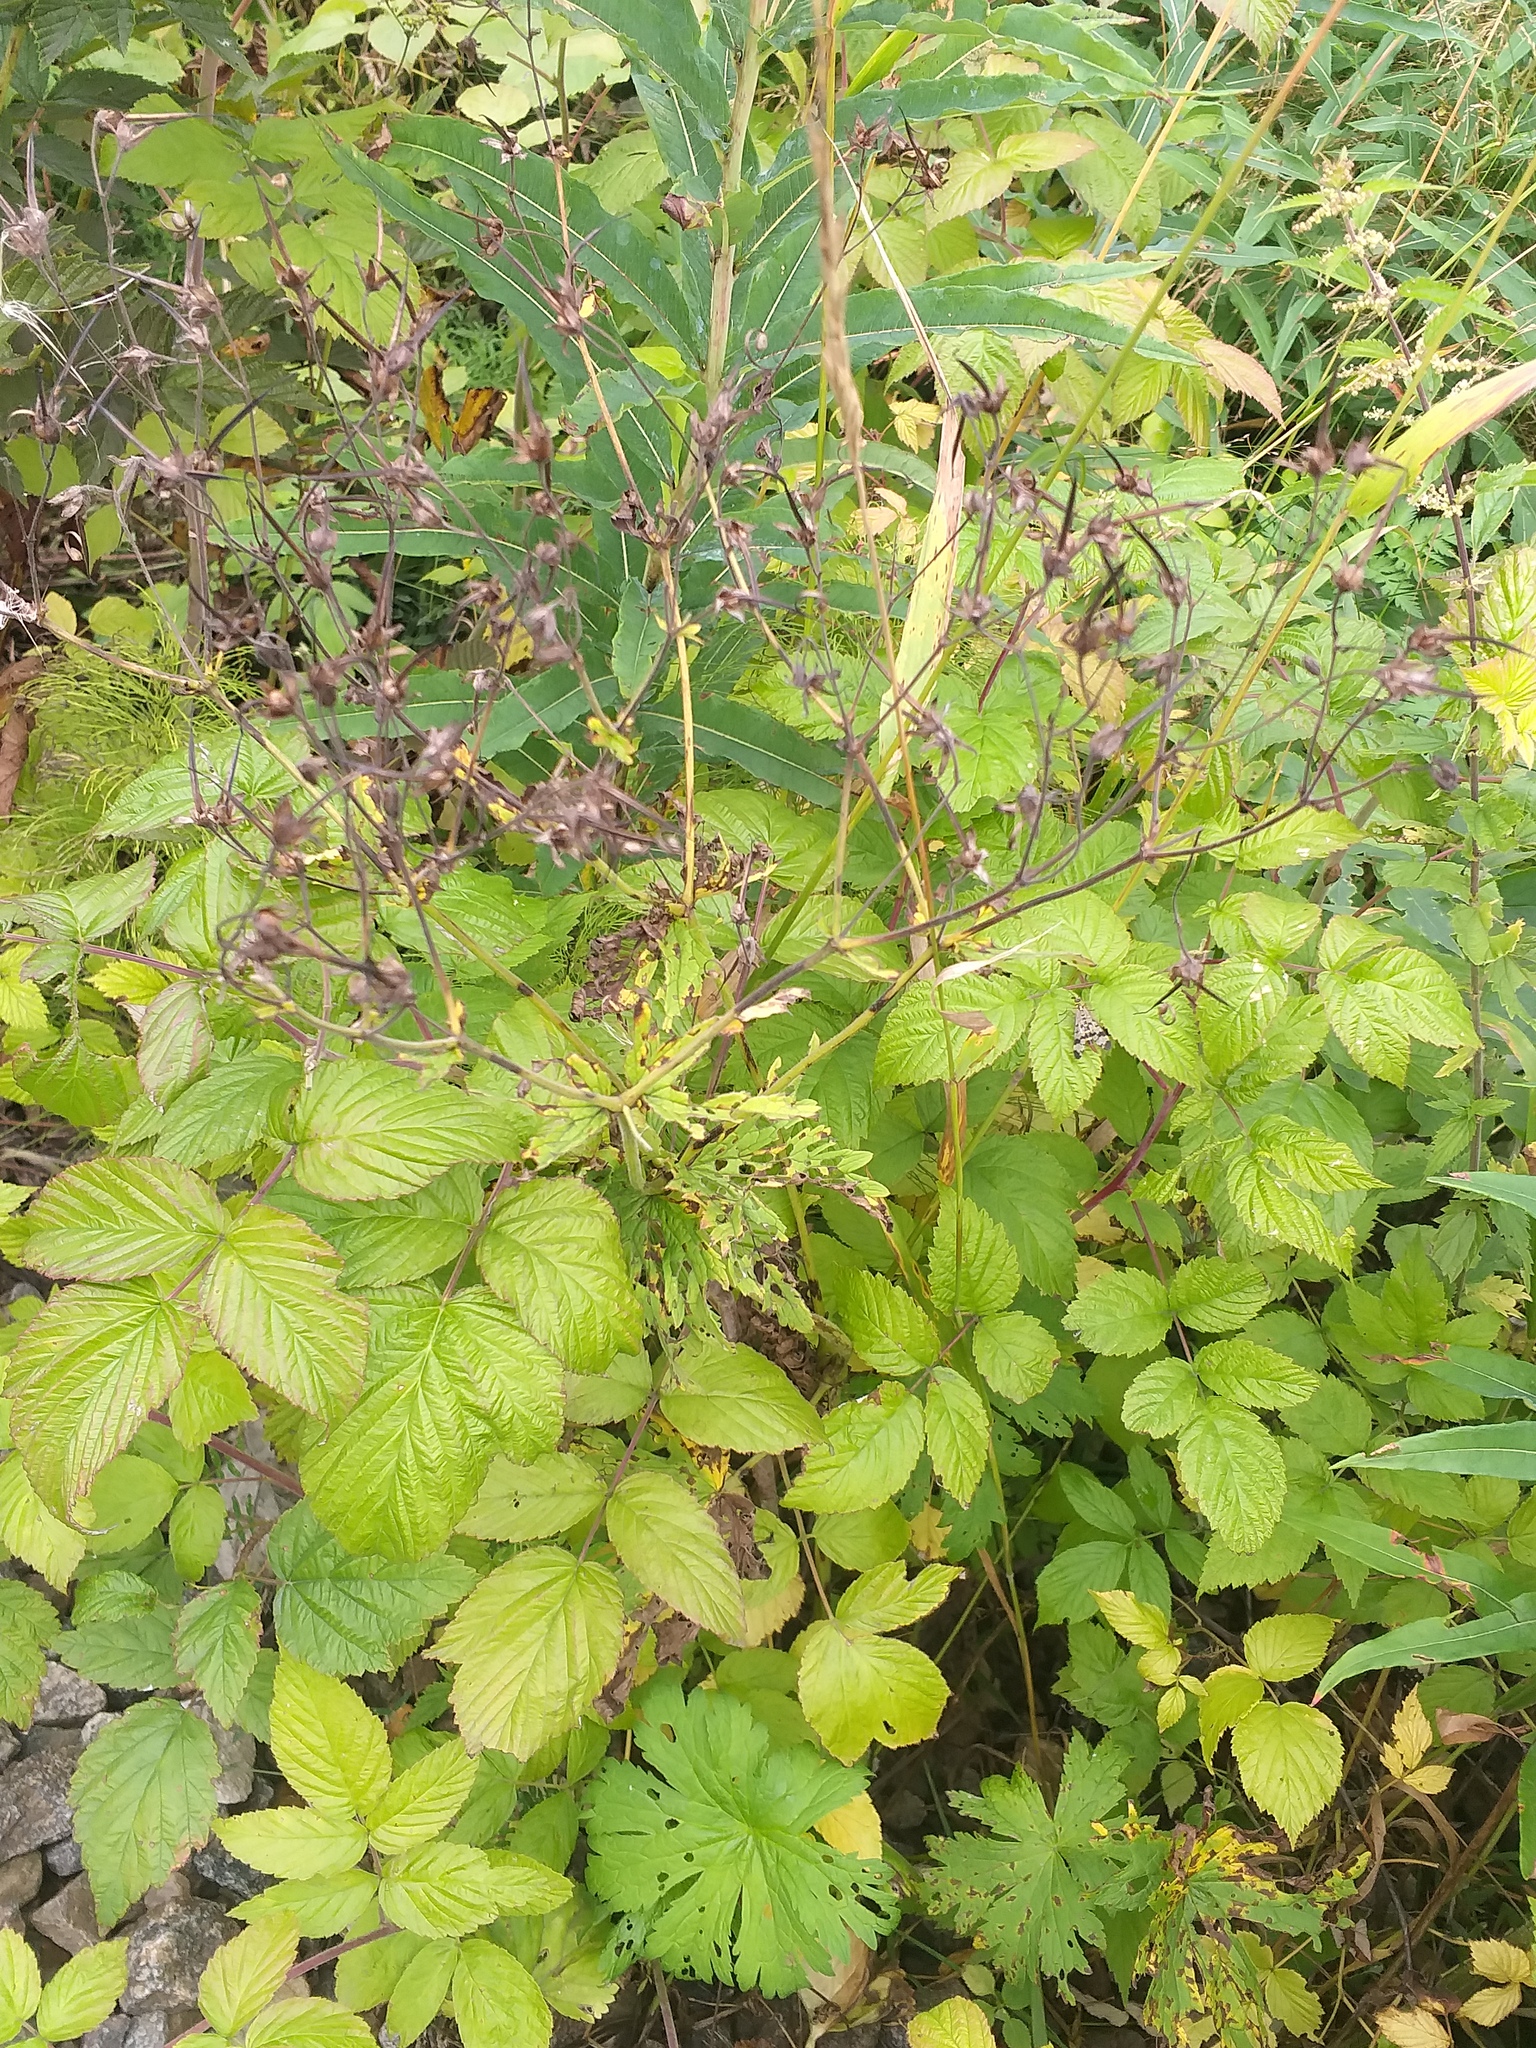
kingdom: Plantae
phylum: Tracheophyta
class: Magnoliopsida
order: Geraniales
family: Geraniaceae
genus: Geranium
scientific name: Geranium sylvaticum
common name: Wood crane's-bill
